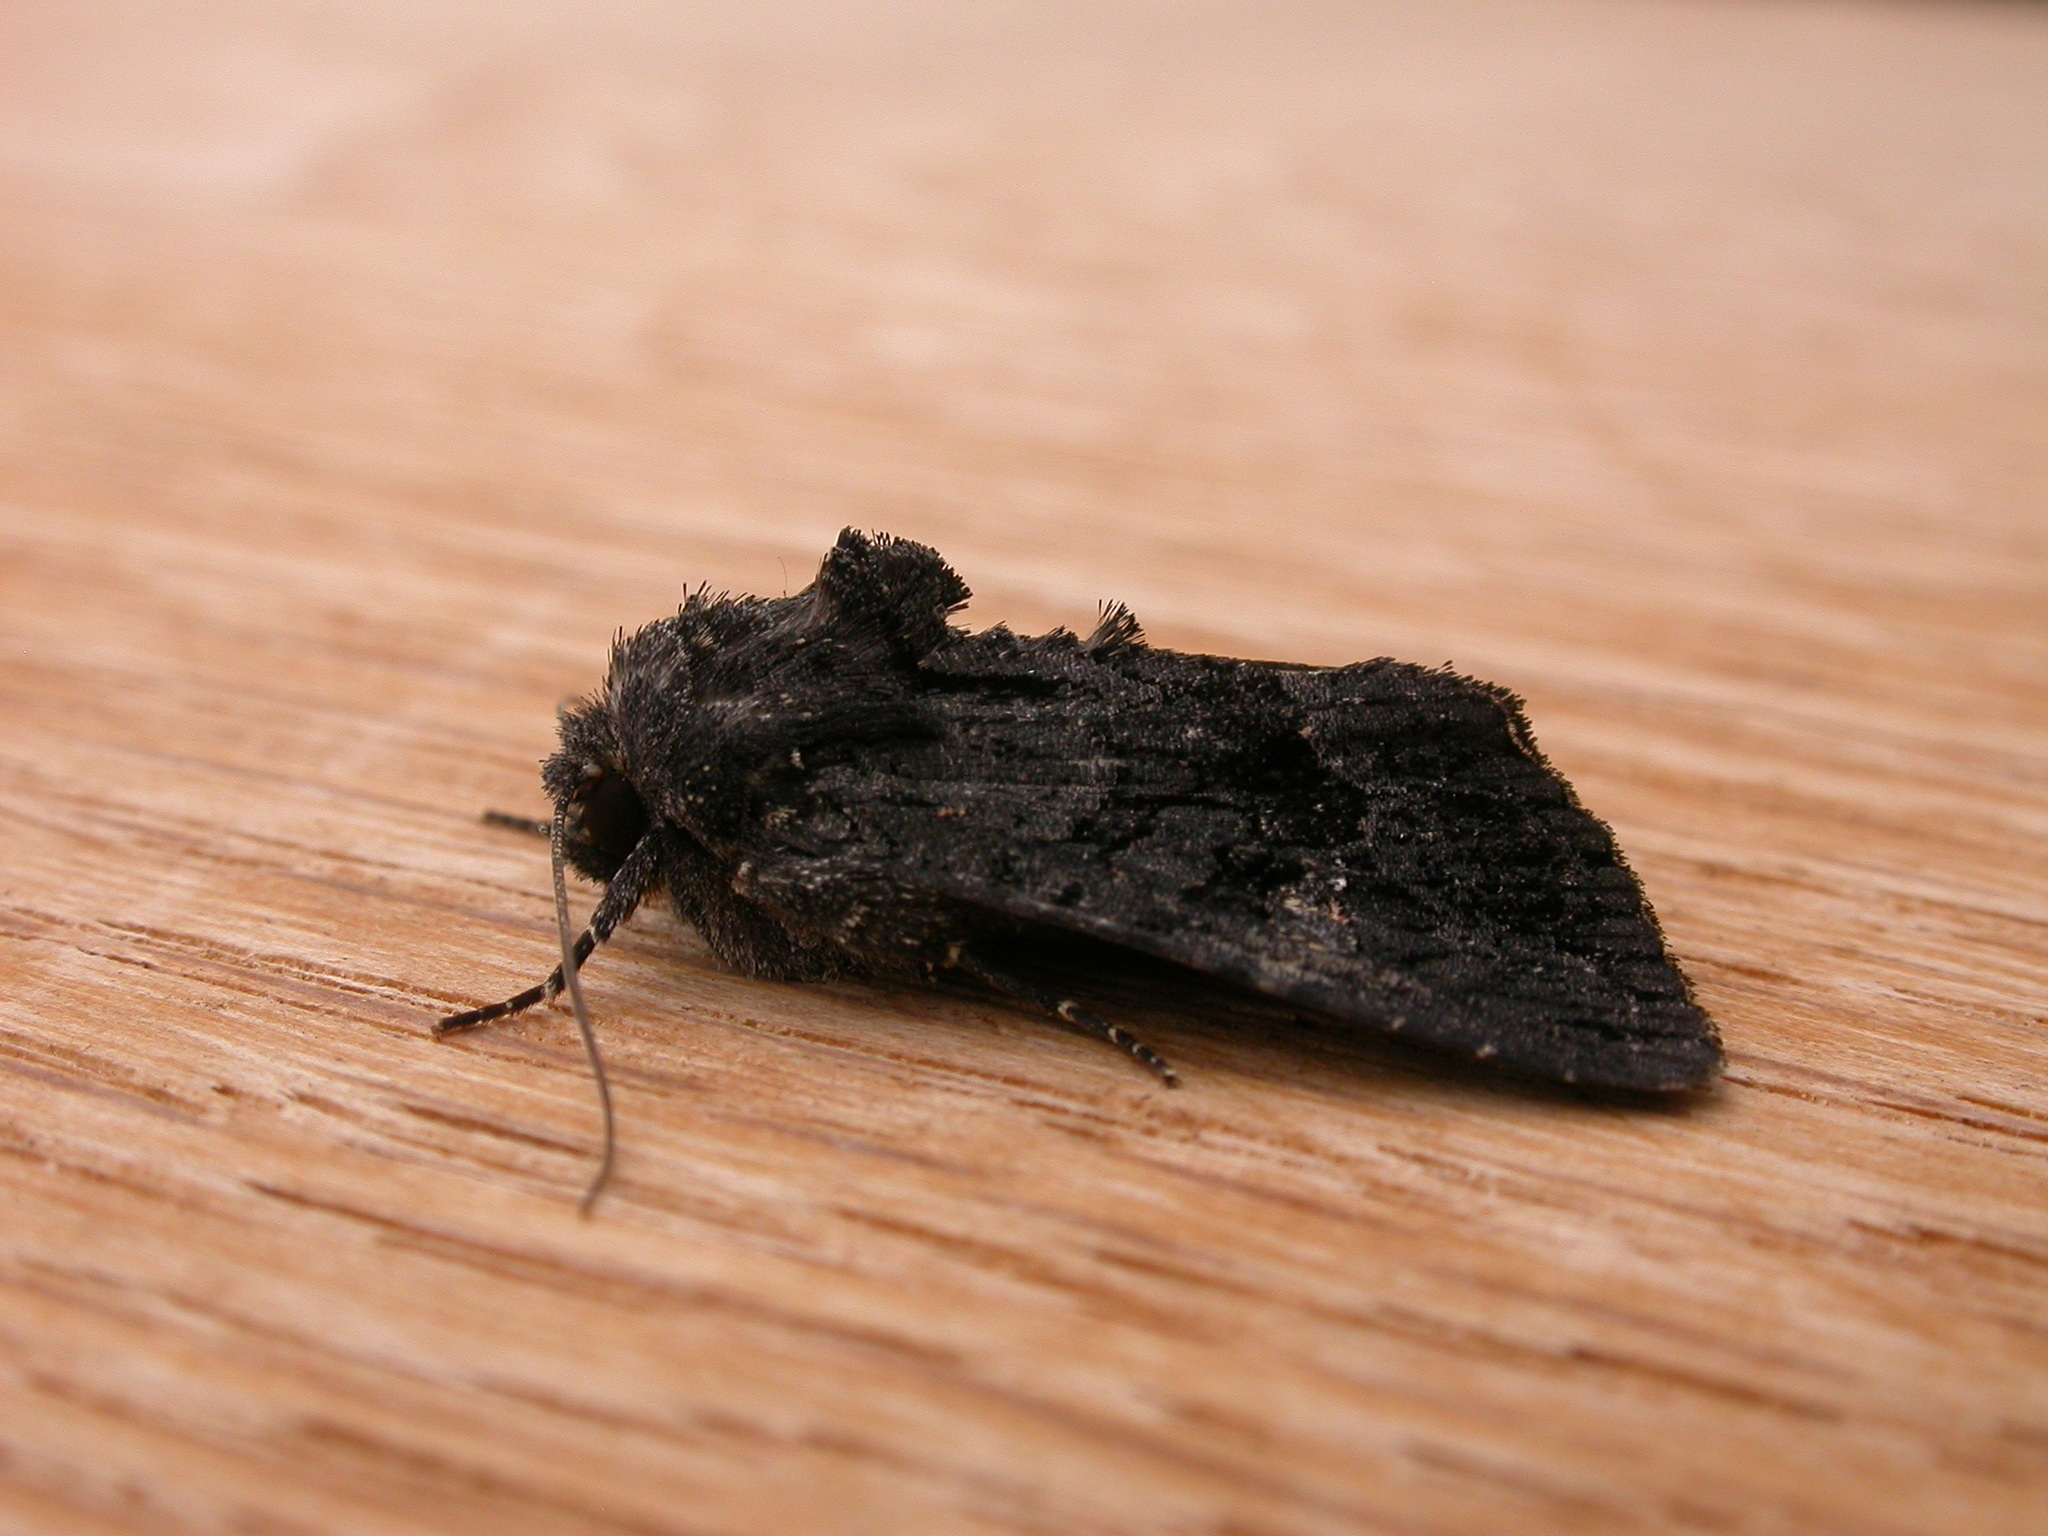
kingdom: Animalia
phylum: Arthropoda
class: Insecta
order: Lepidoptera
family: Noctuidae
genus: Neumichtis
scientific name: Neumichtis nigerrima
